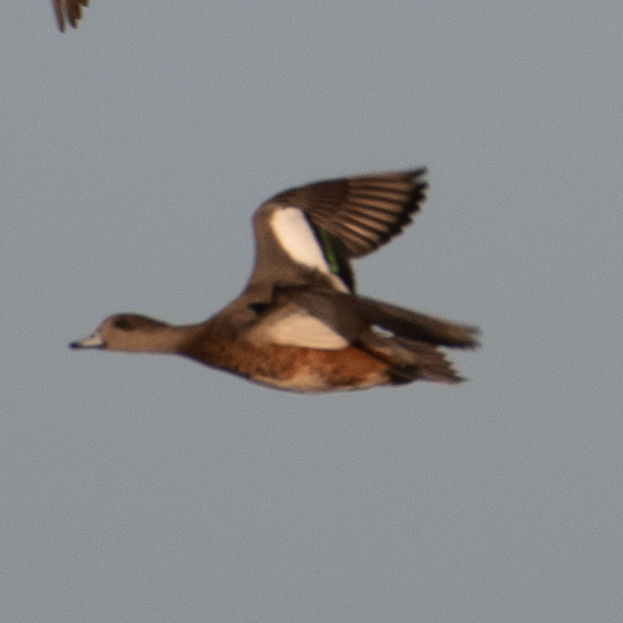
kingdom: Animalia
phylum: Chordata
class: Aves
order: Anseriformes
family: Anatidae
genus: Mareca
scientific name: Mareca americana
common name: American wigeon
